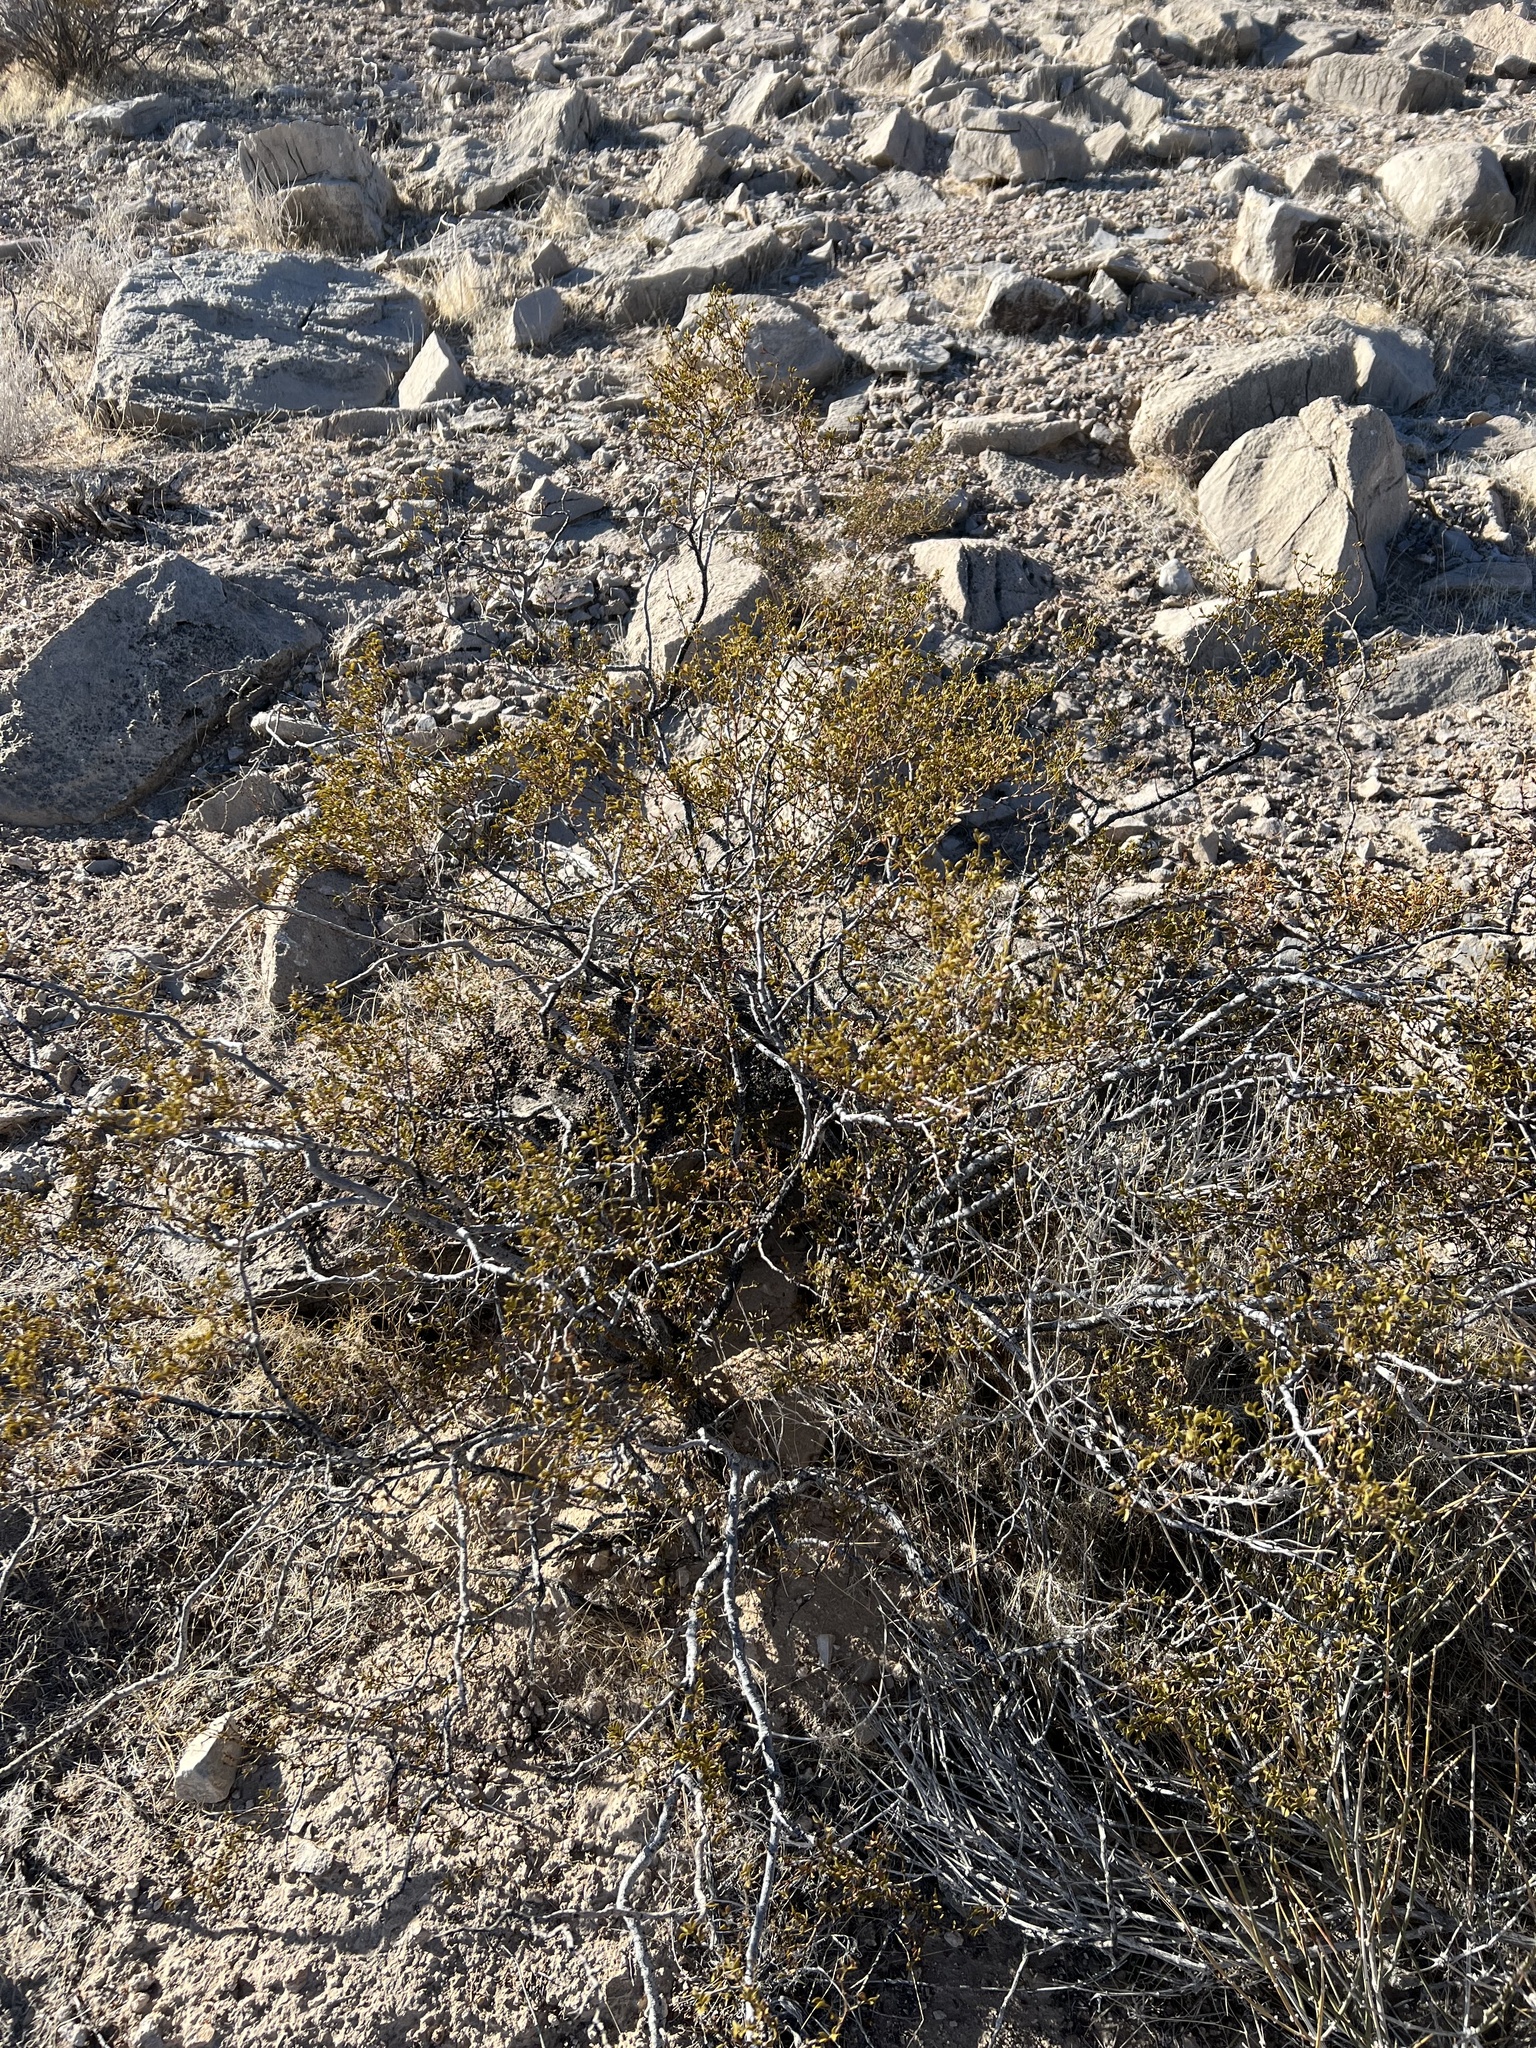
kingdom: Plantae
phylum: Tracheophyta
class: Magnoliopsida
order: Zygophyllales
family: Zygophyllaceae
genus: Larrea
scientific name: Larrea tridentata
